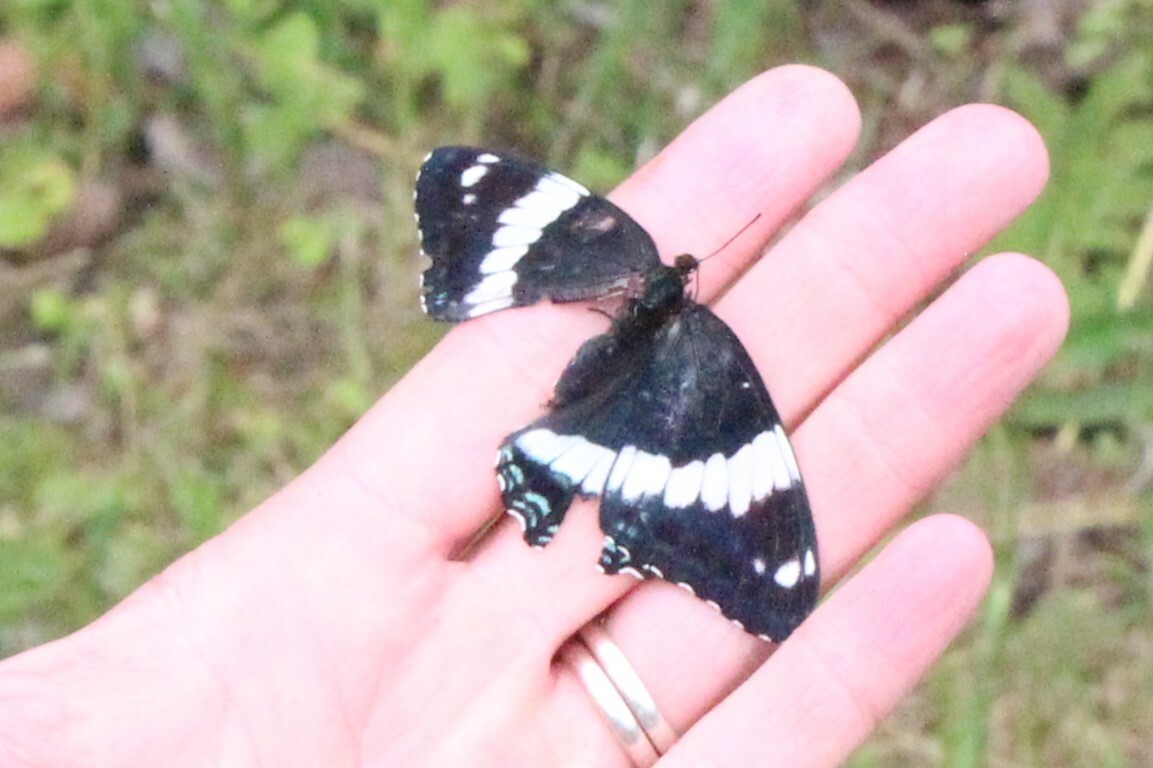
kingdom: Animalia
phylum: Arthropoda
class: Insecta
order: Lepidoptera
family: Nymphalidae
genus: Limenitis
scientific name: Limenitis arthemis
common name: Red-spotted admiral
